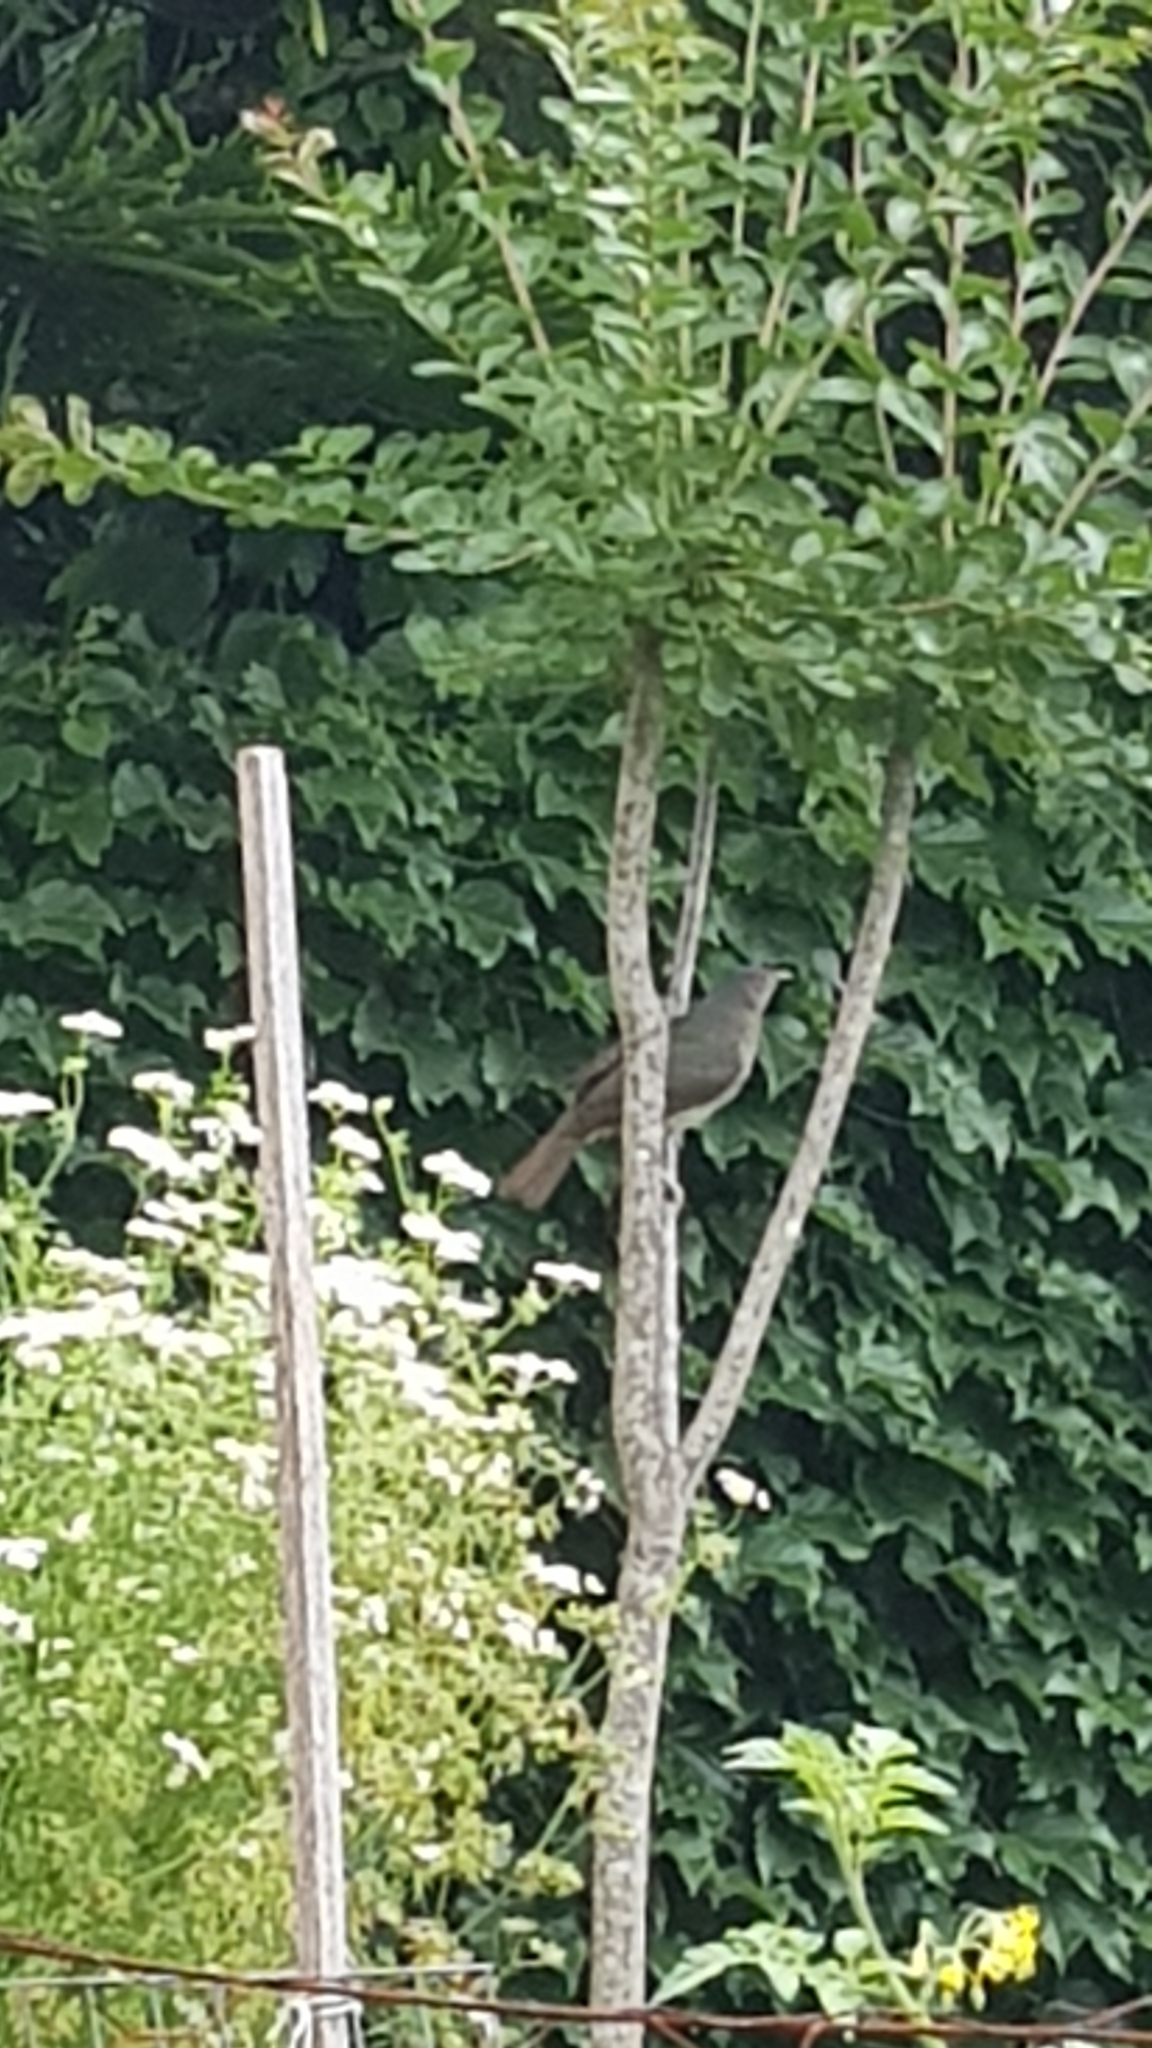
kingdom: Animalia
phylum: Chordata
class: Aves
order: Passeriformes
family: Ptilonorhynchidae
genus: Ptilonorhynchus
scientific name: Ptilonorhynchus violaceus
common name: Satin bowerbird
